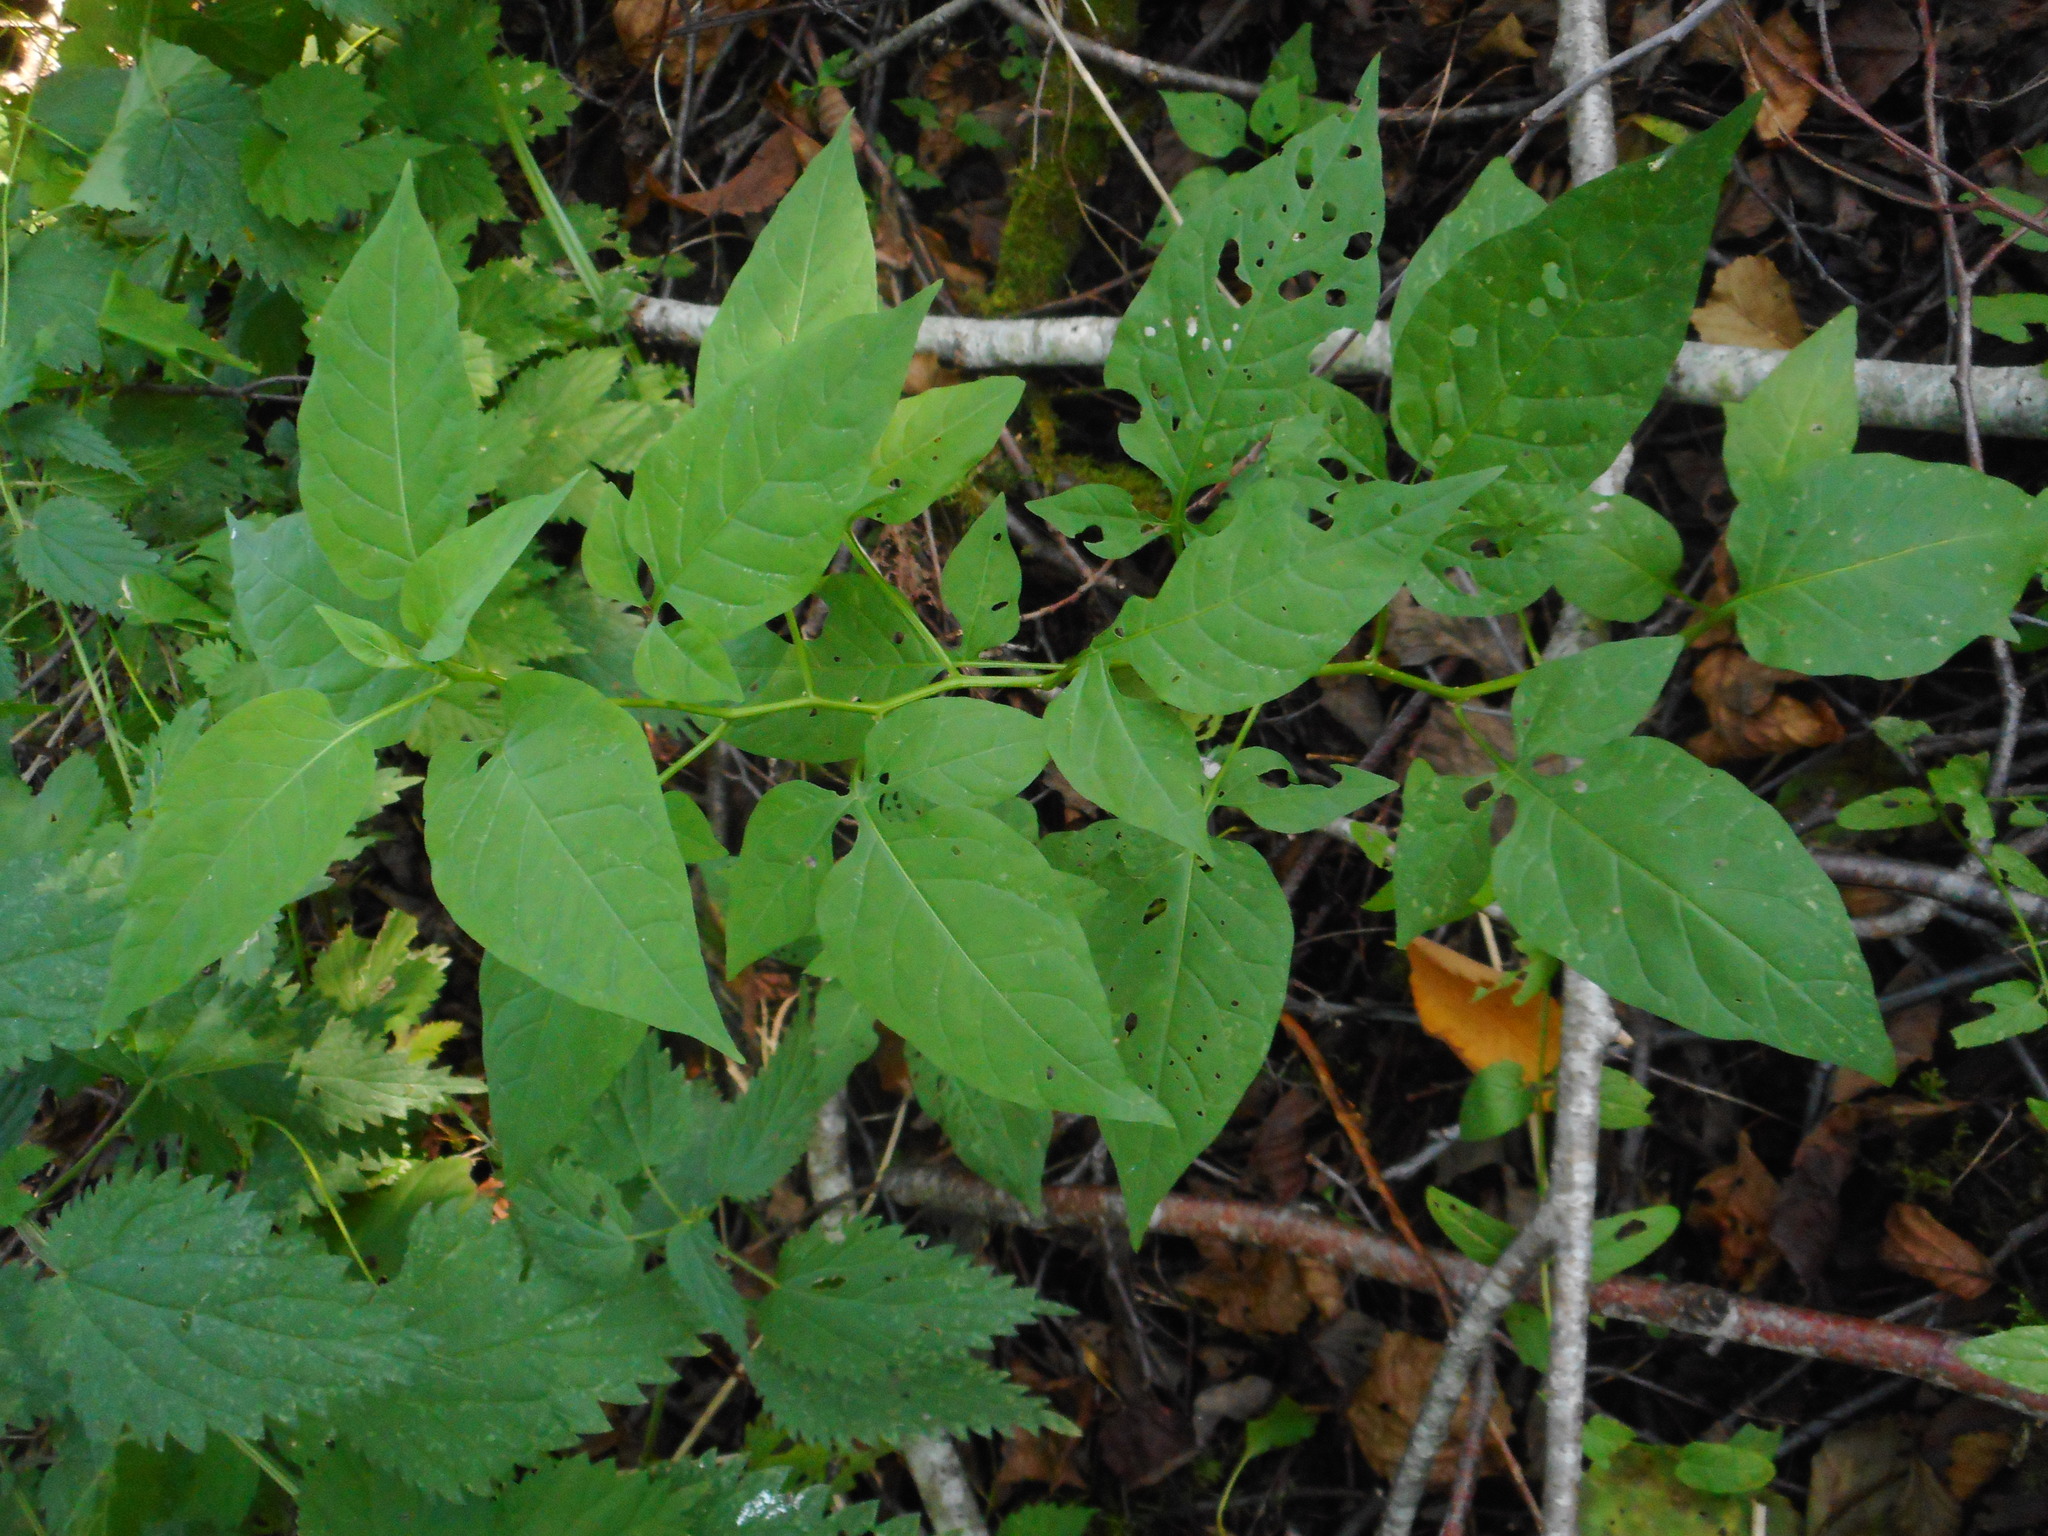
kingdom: Plantae
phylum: Tracheophyta
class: Magnoliopsida
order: Solanales
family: Solanaceae
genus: Solanum
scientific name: Solanum dulcamara
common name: Climbing nightshade
